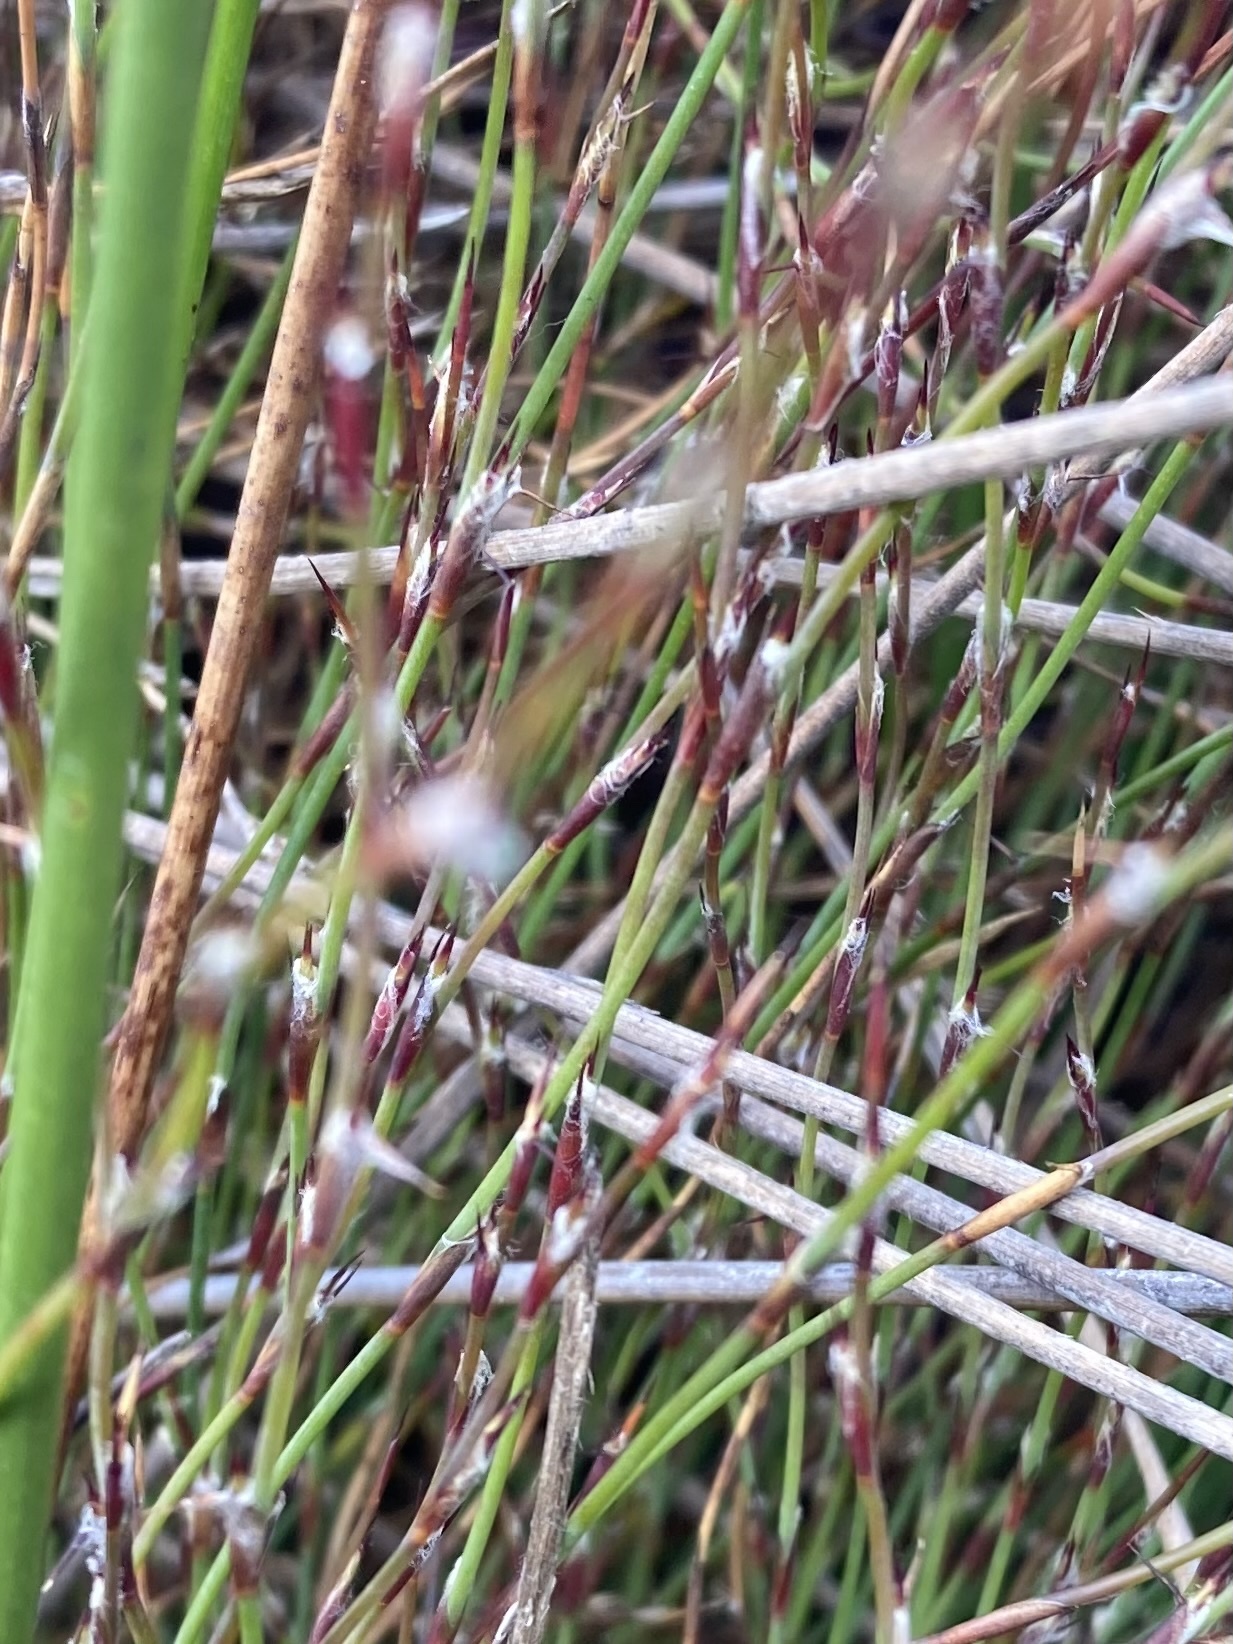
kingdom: Plantae
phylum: Tracheophyta
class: Liliopsida
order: Poales
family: Restionaceae
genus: Empodisma
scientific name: Empodisma minus
